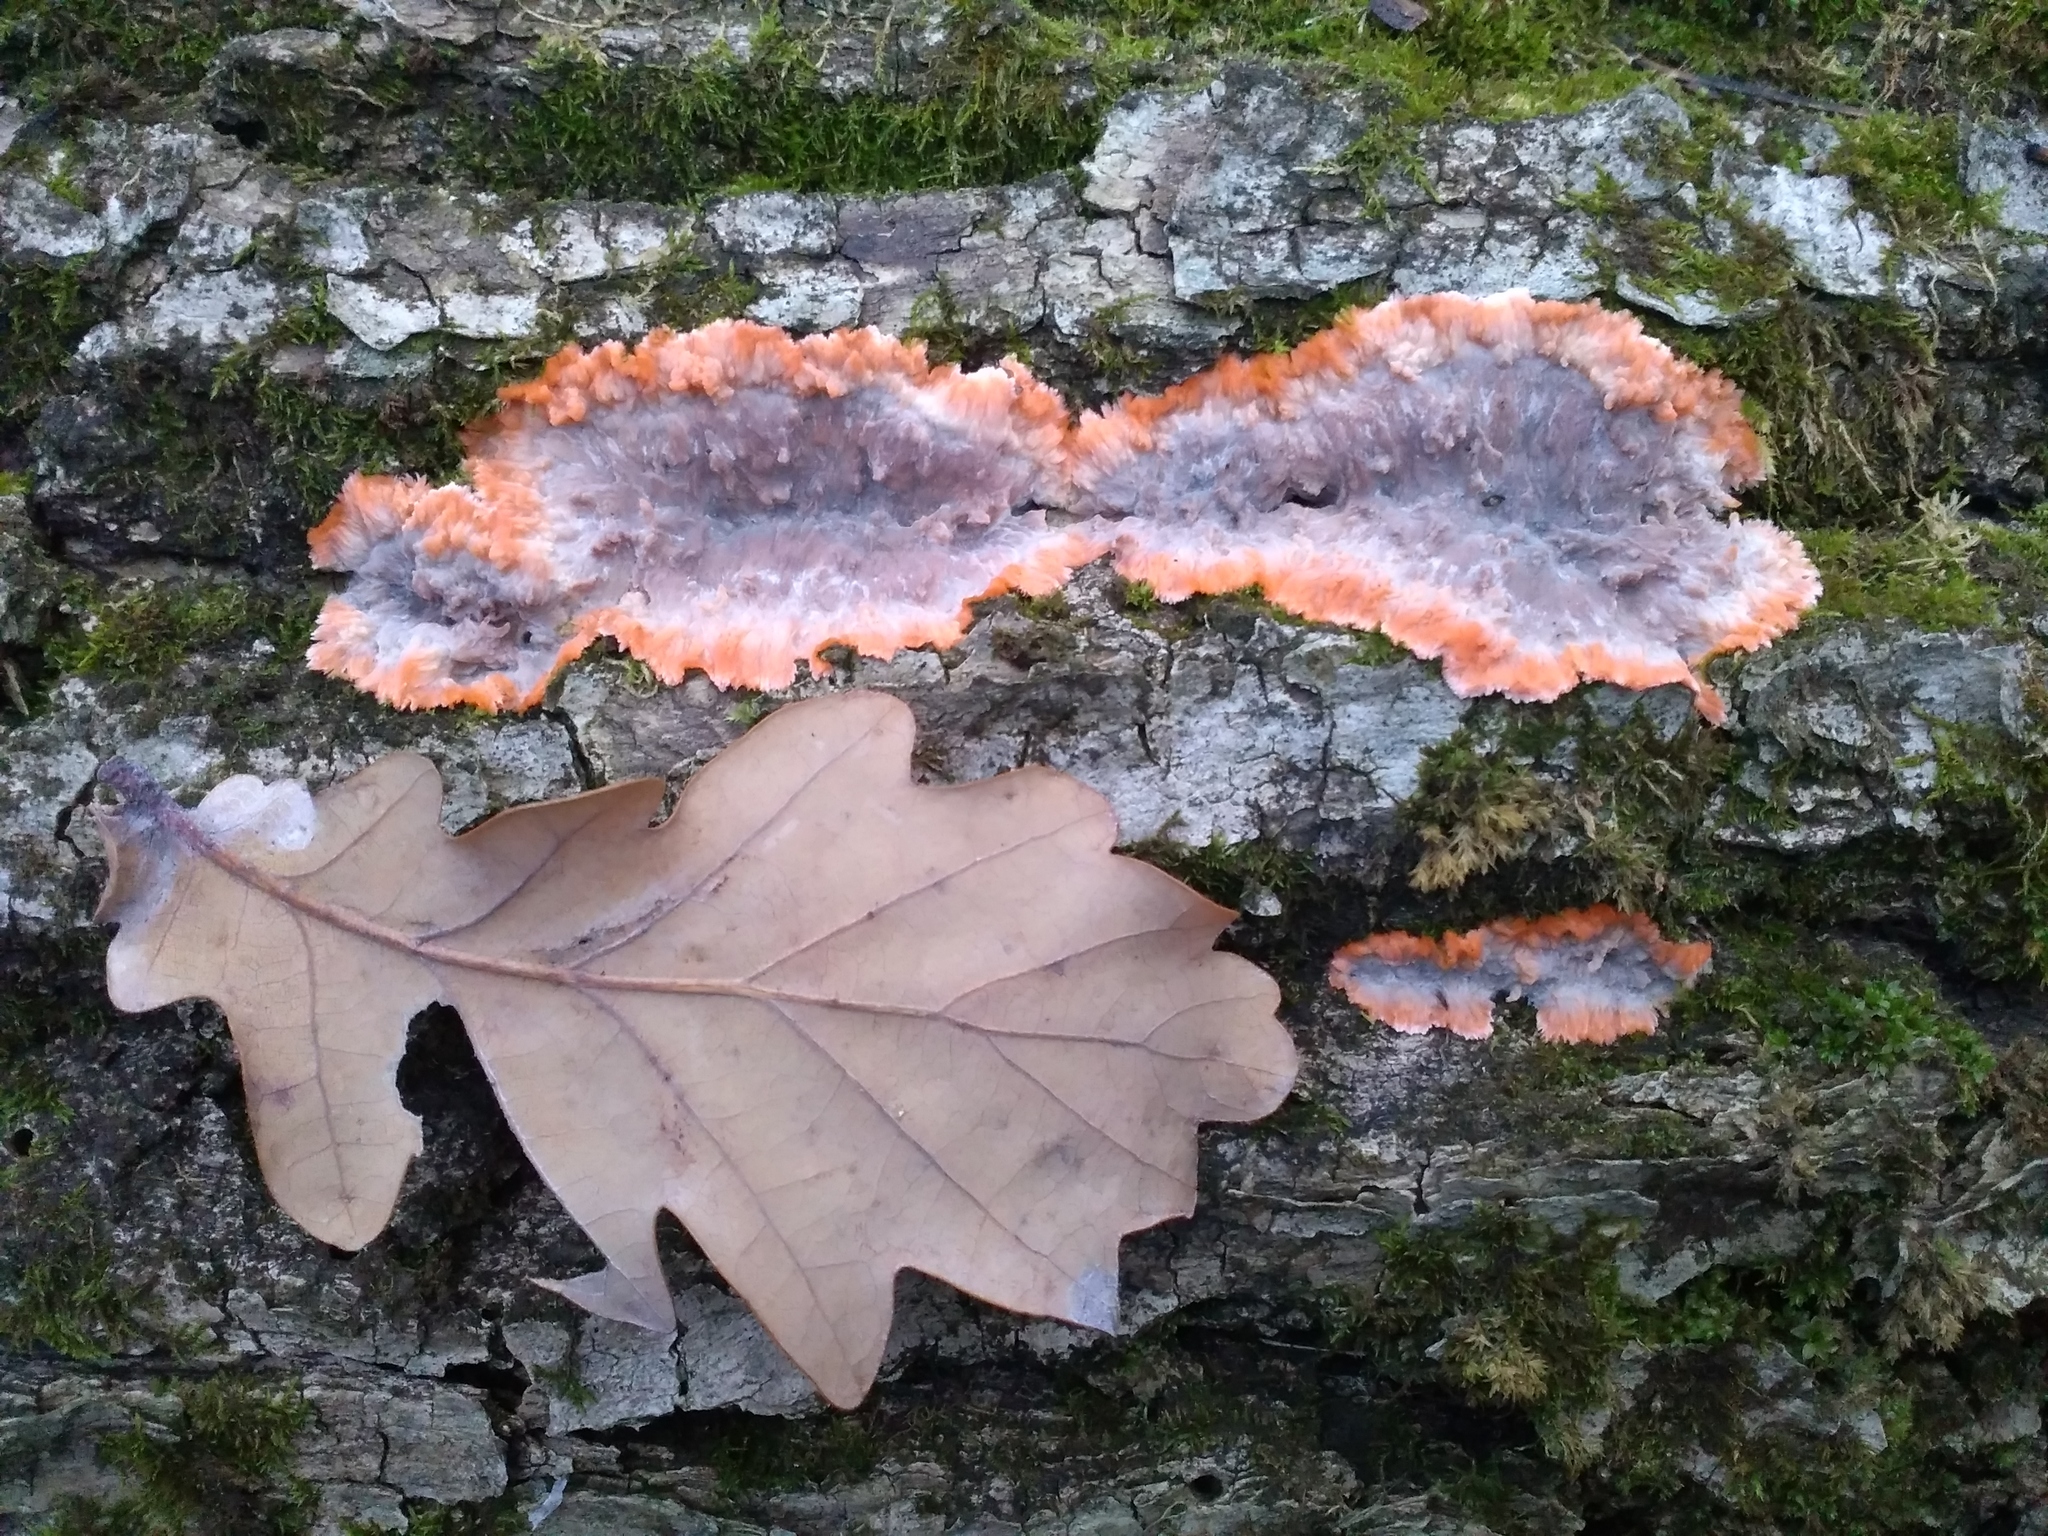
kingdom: Fungi
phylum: Basidiomycota
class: Agaricomycetes
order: Polyporales
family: Meruliaceae
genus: Phlebia
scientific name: Phlebia radiata
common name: Wrinkled crust
